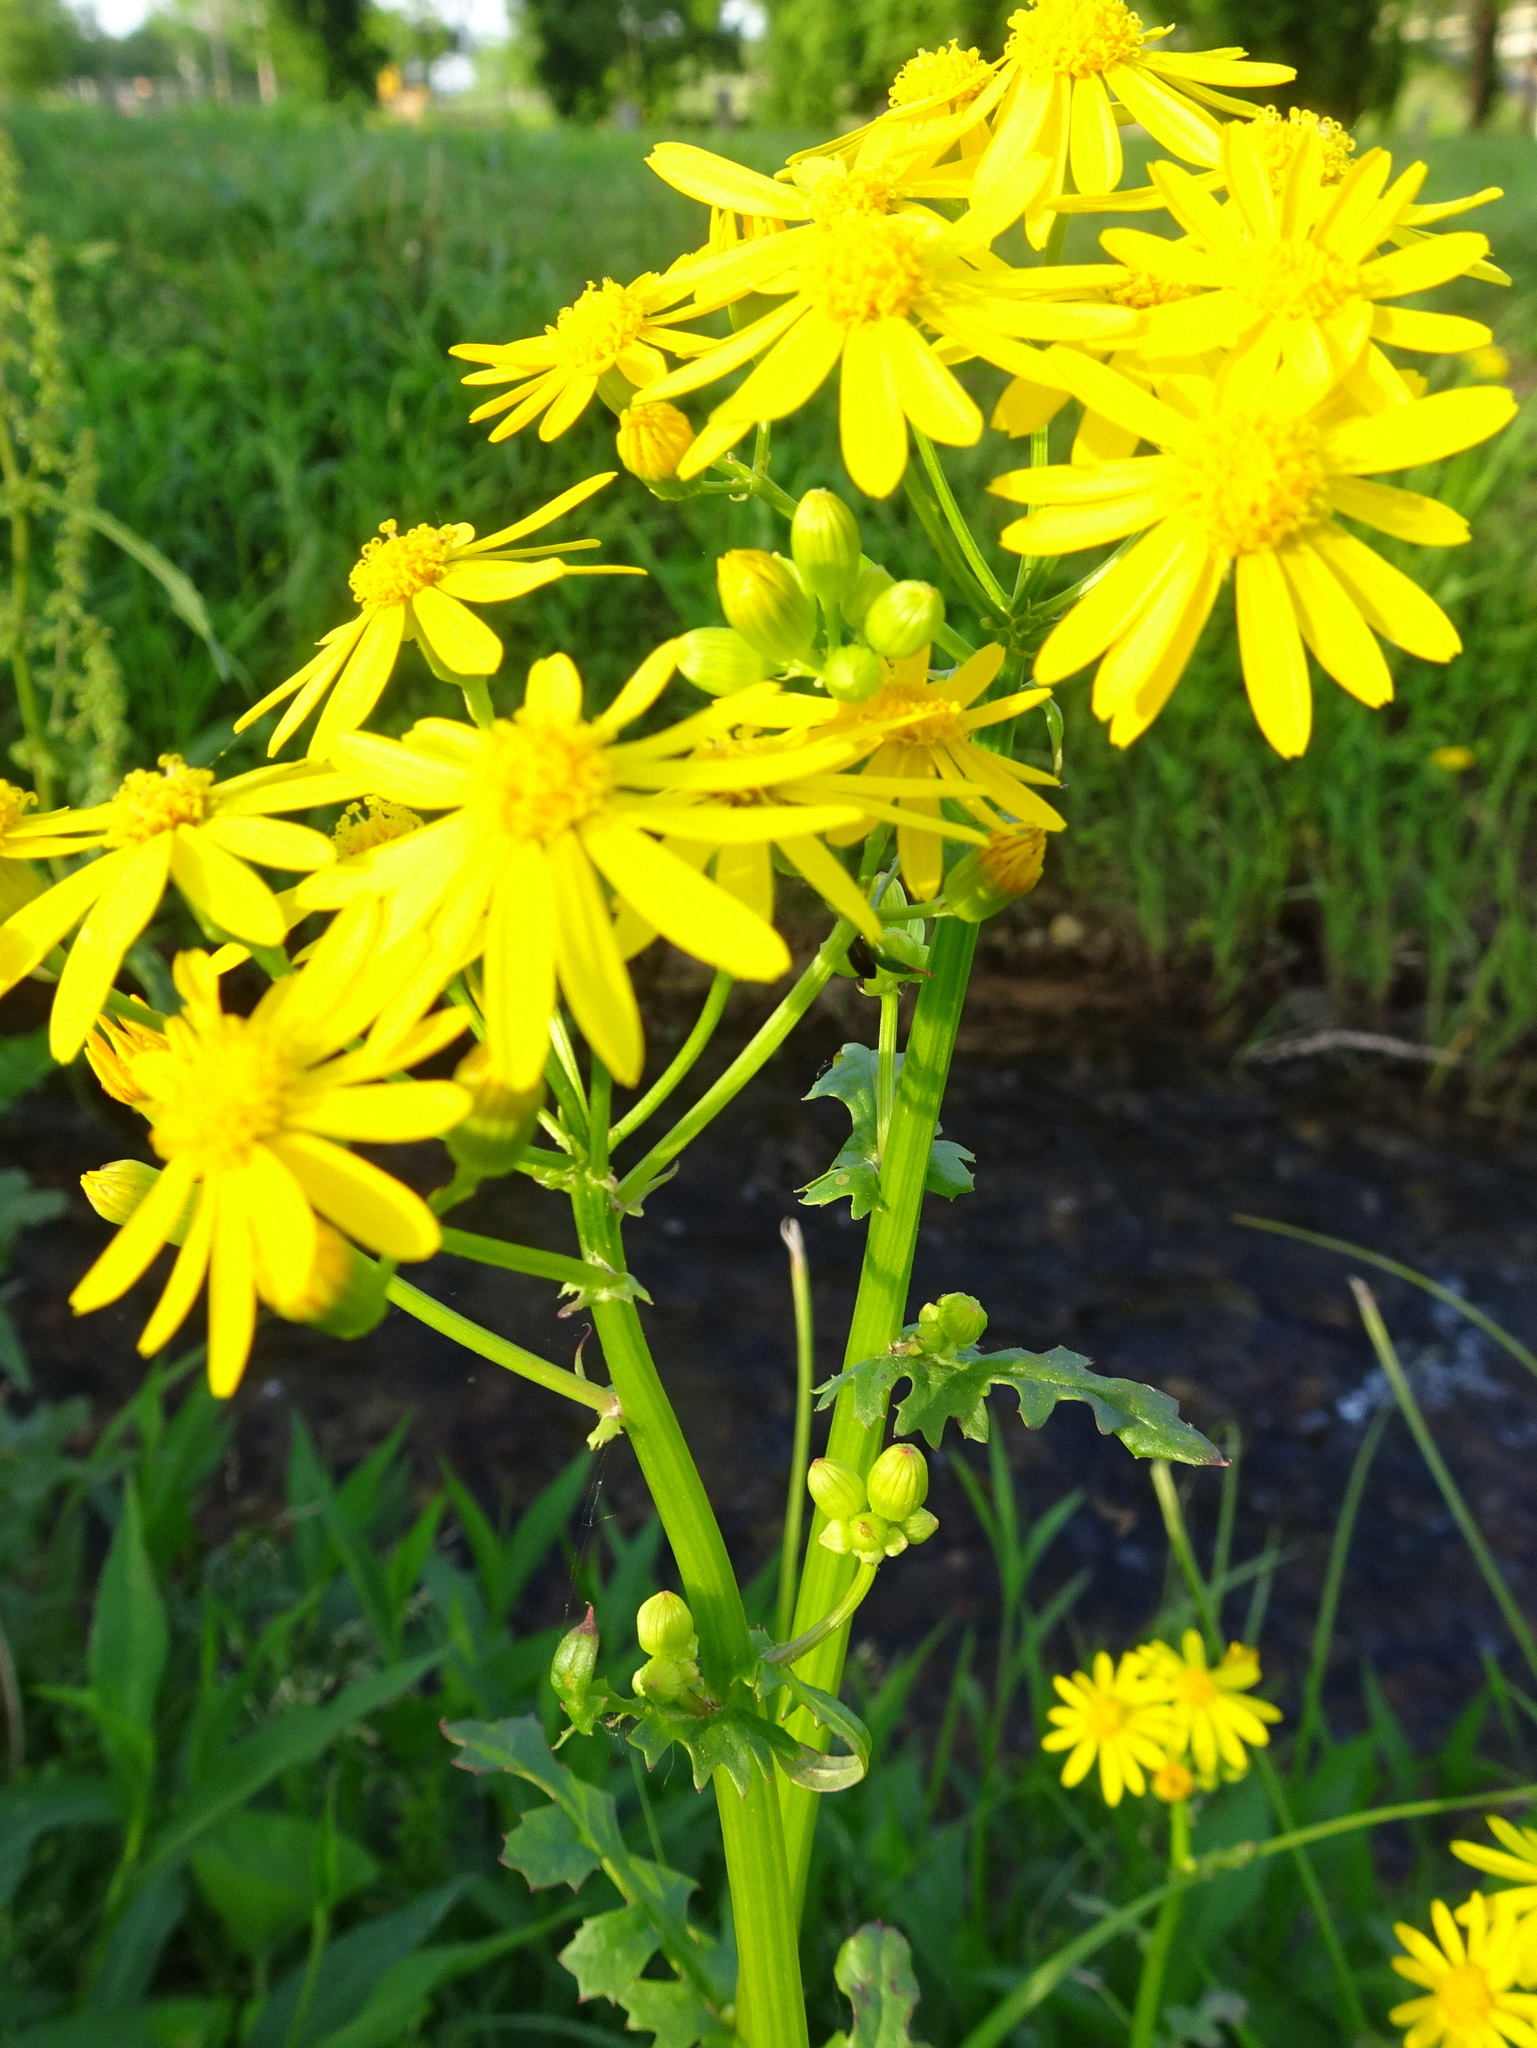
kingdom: Plantae
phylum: Tracheophyta
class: Magnoliopsida
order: Asterales
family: Asteraceae
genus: Packera
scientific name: Packera glabella
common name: Butterweed
